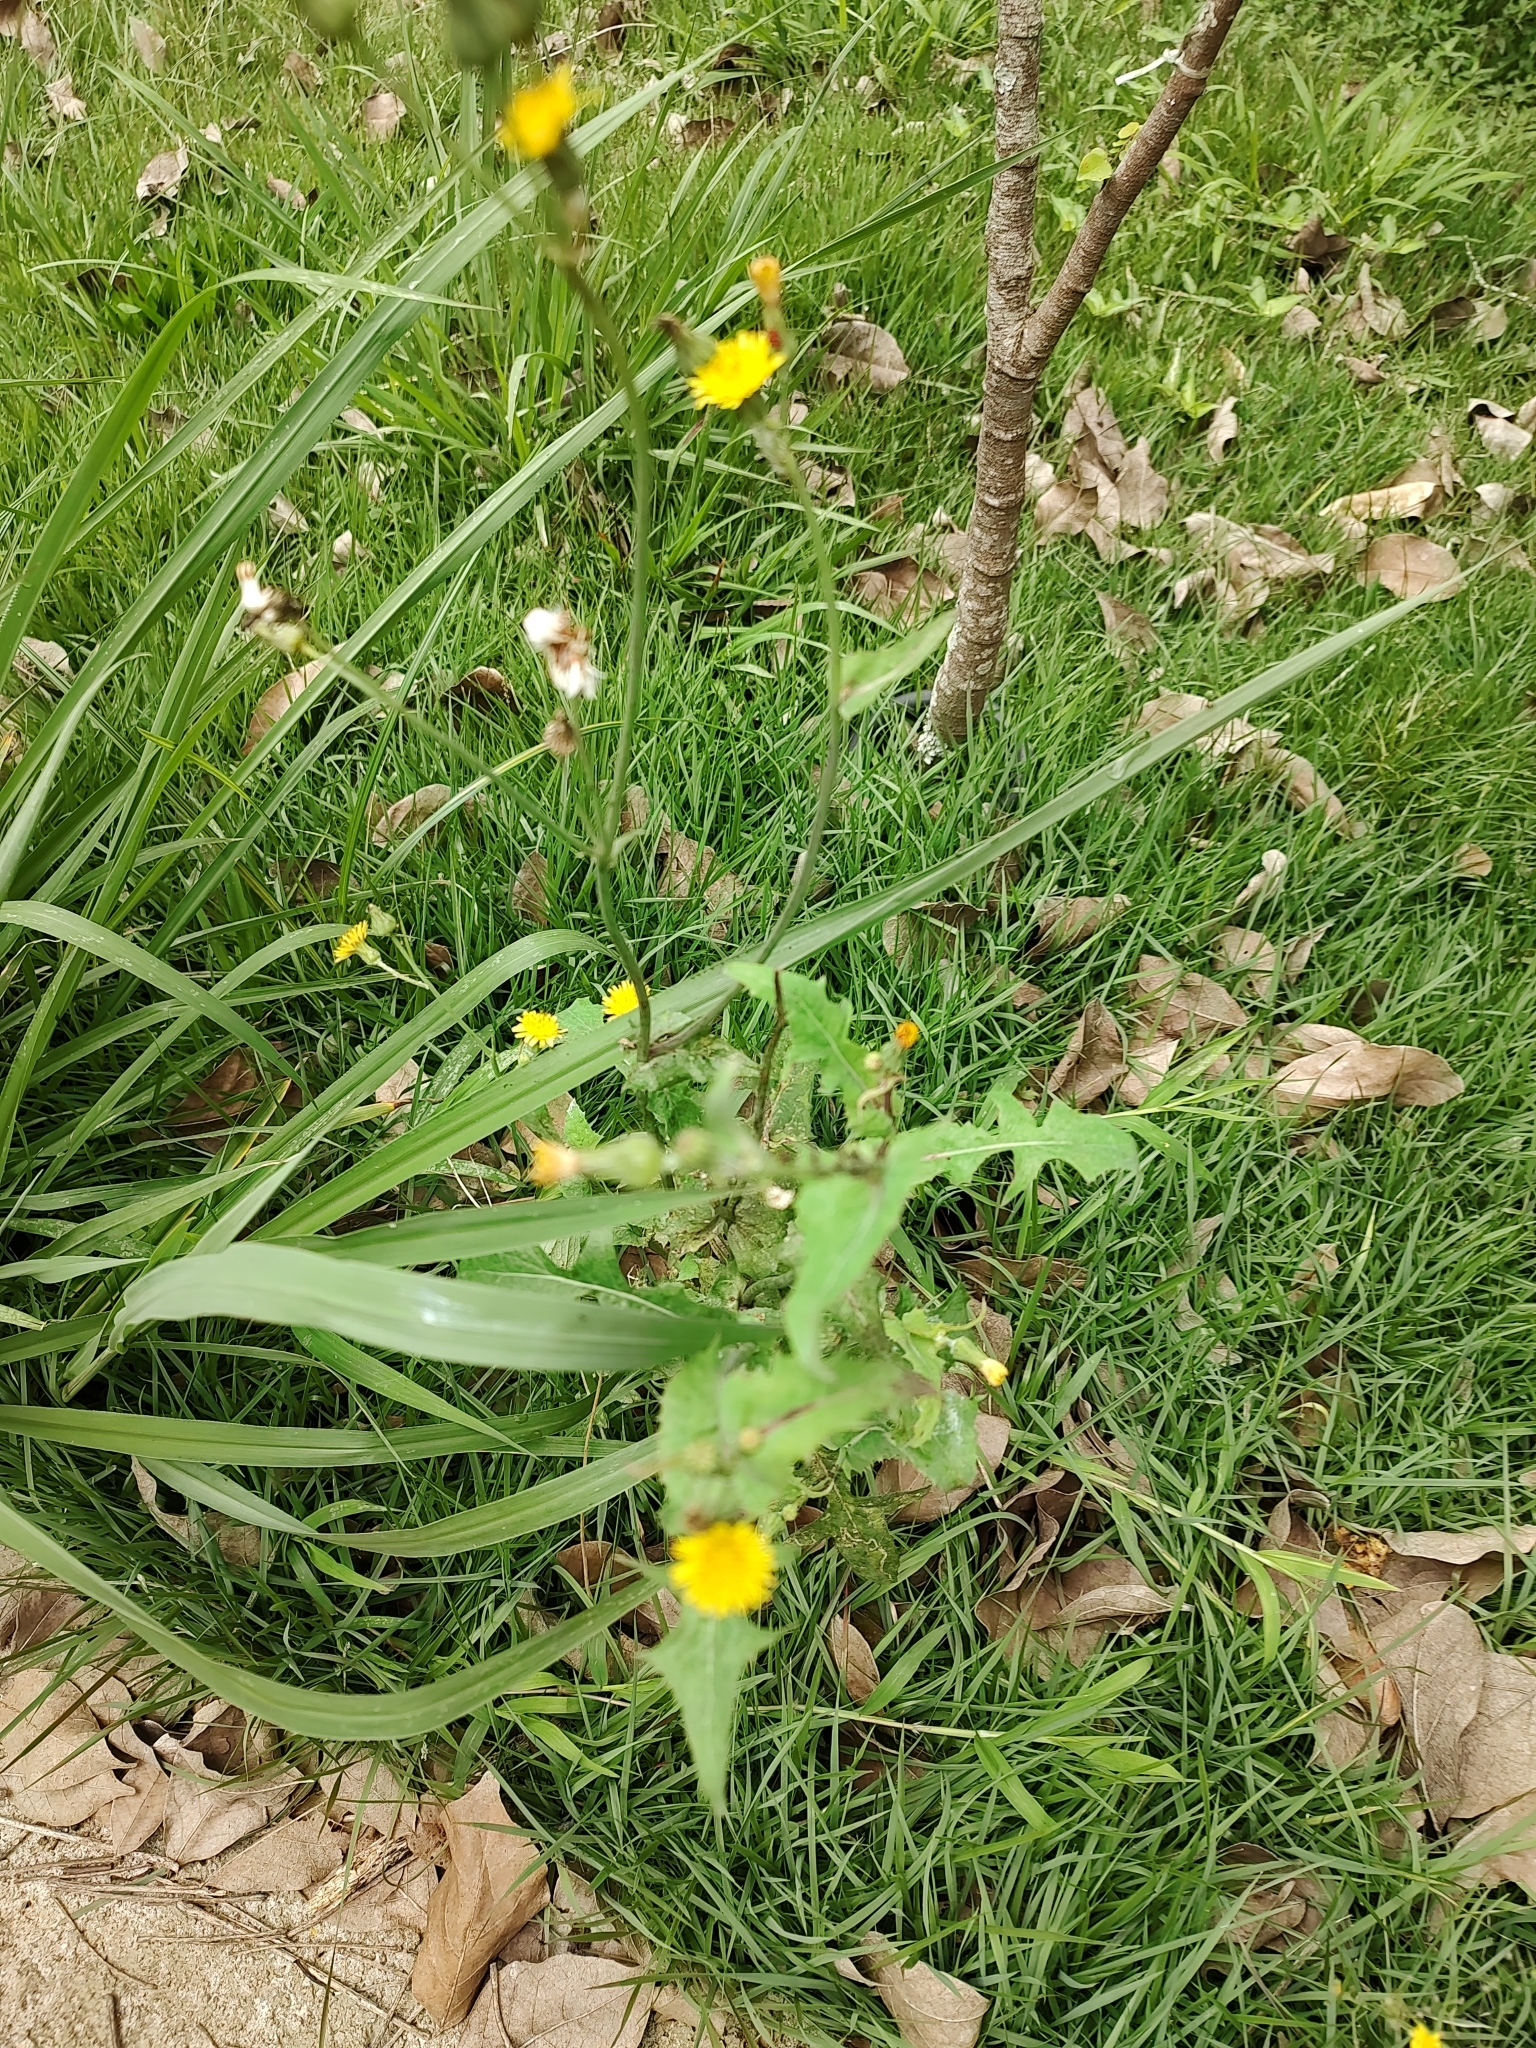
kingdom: Plantae
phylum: Tracheophyta
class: Magnoliopsida
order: Asterales
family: Asteraceae
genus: Sonchus
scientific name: Sonchus oleraceus
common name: Common sowthistle
